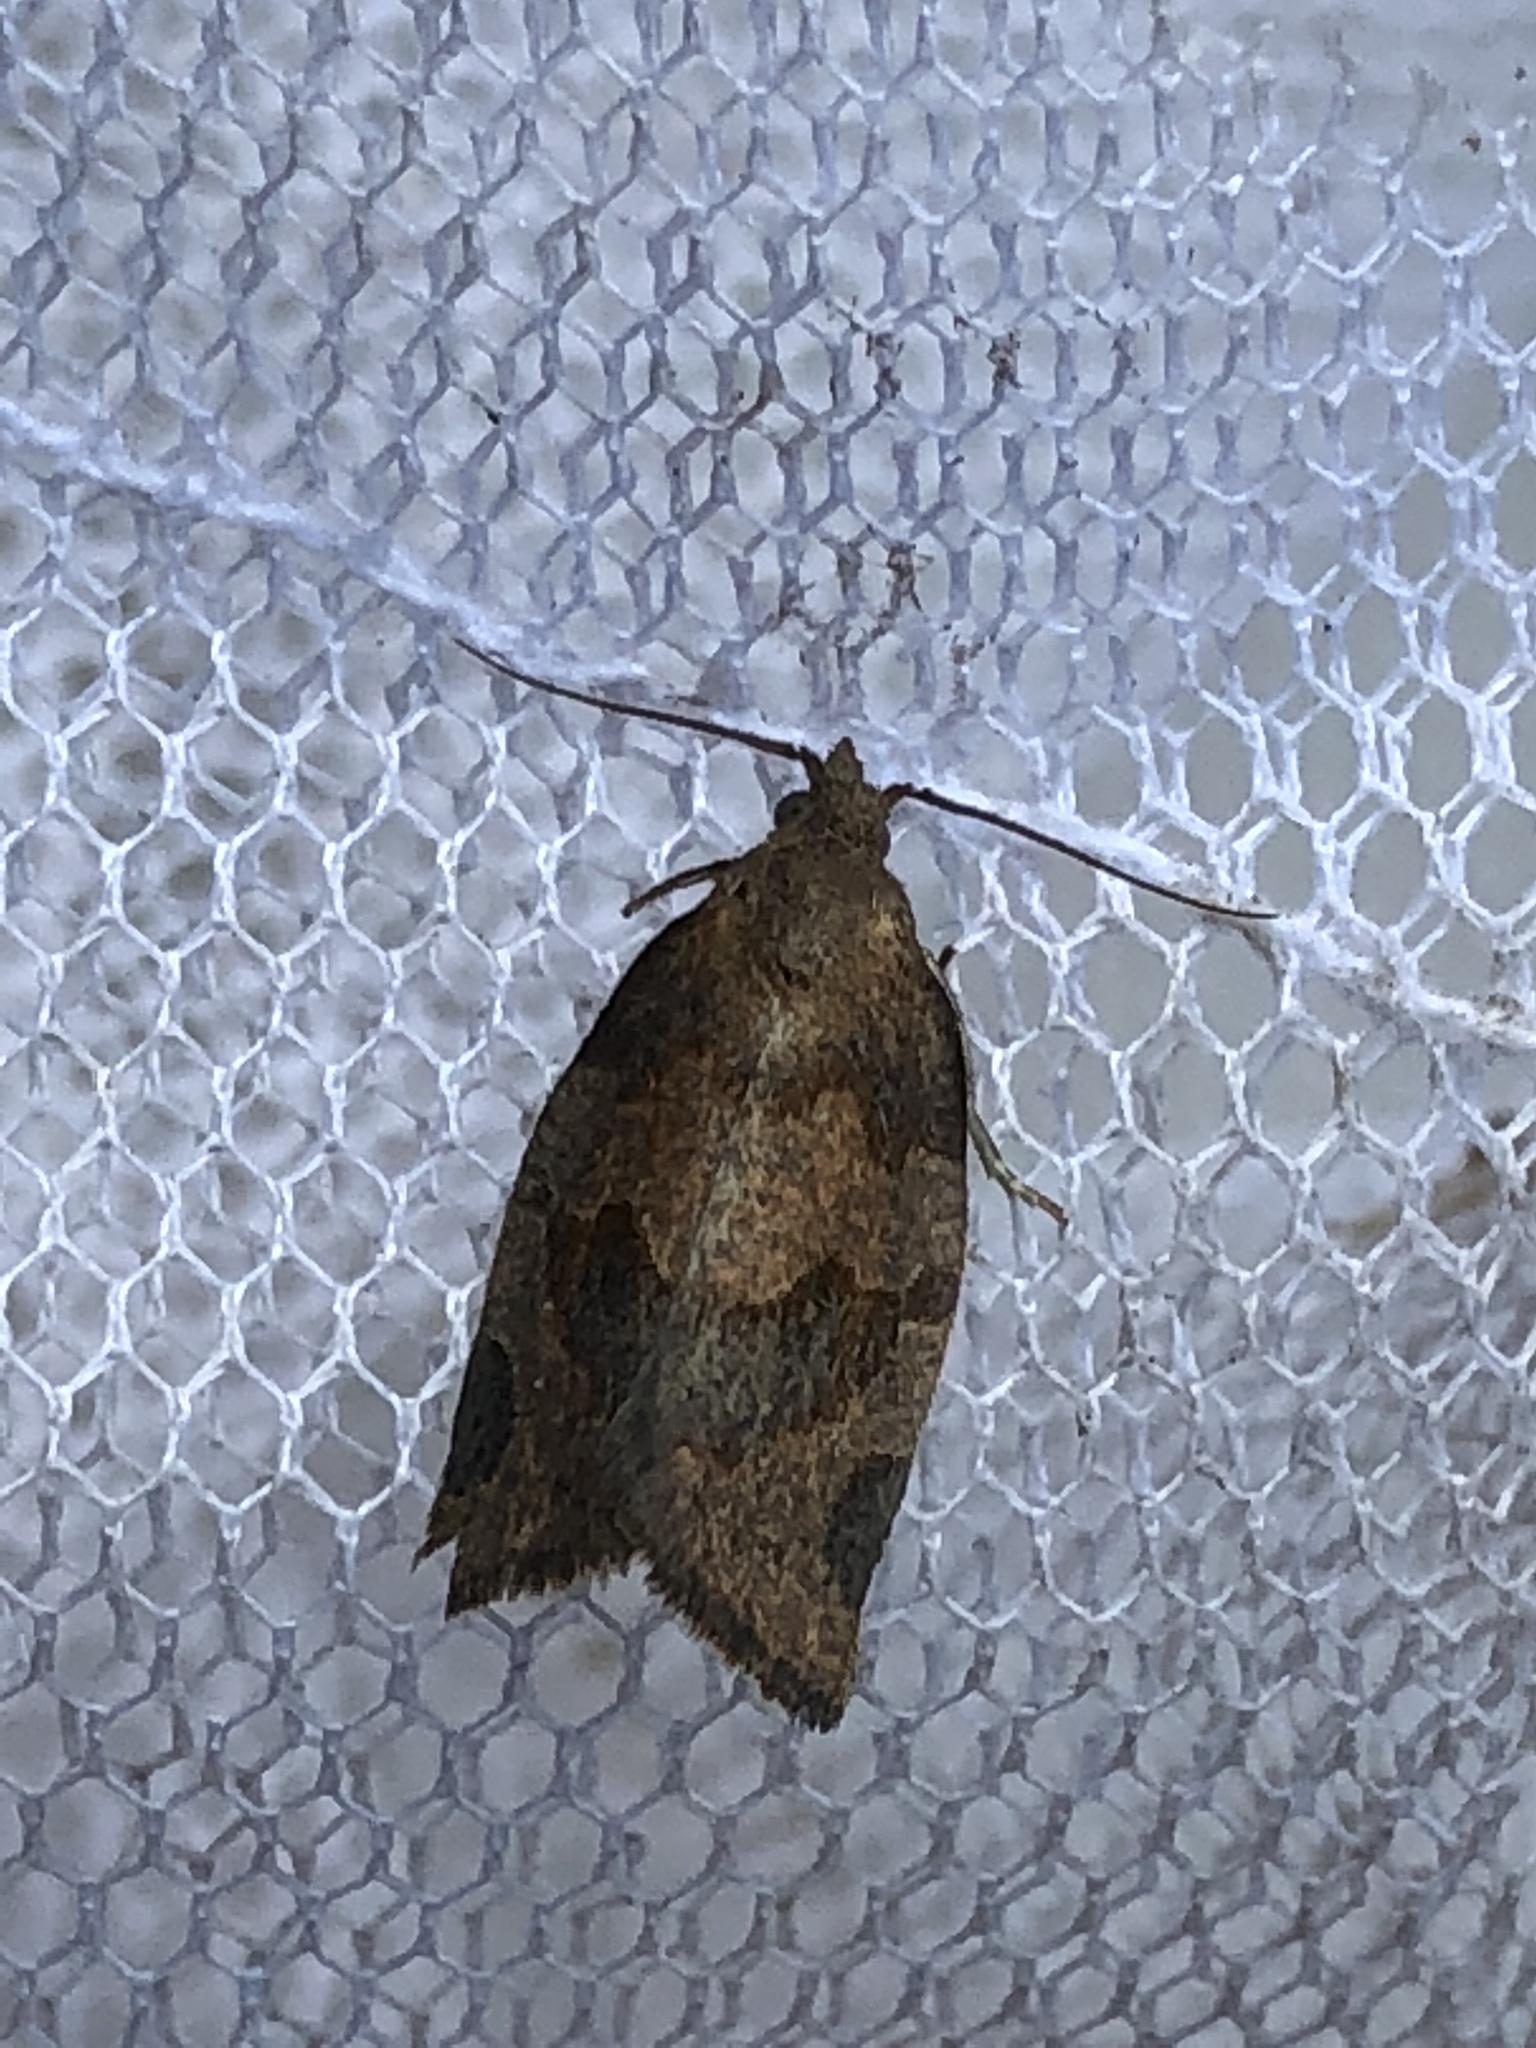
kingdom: Animalia
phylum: Arthropoda
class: Insecta
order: Lepidoptera
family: Tortricidae
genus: Pandemis
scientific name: Pandemis canadana
